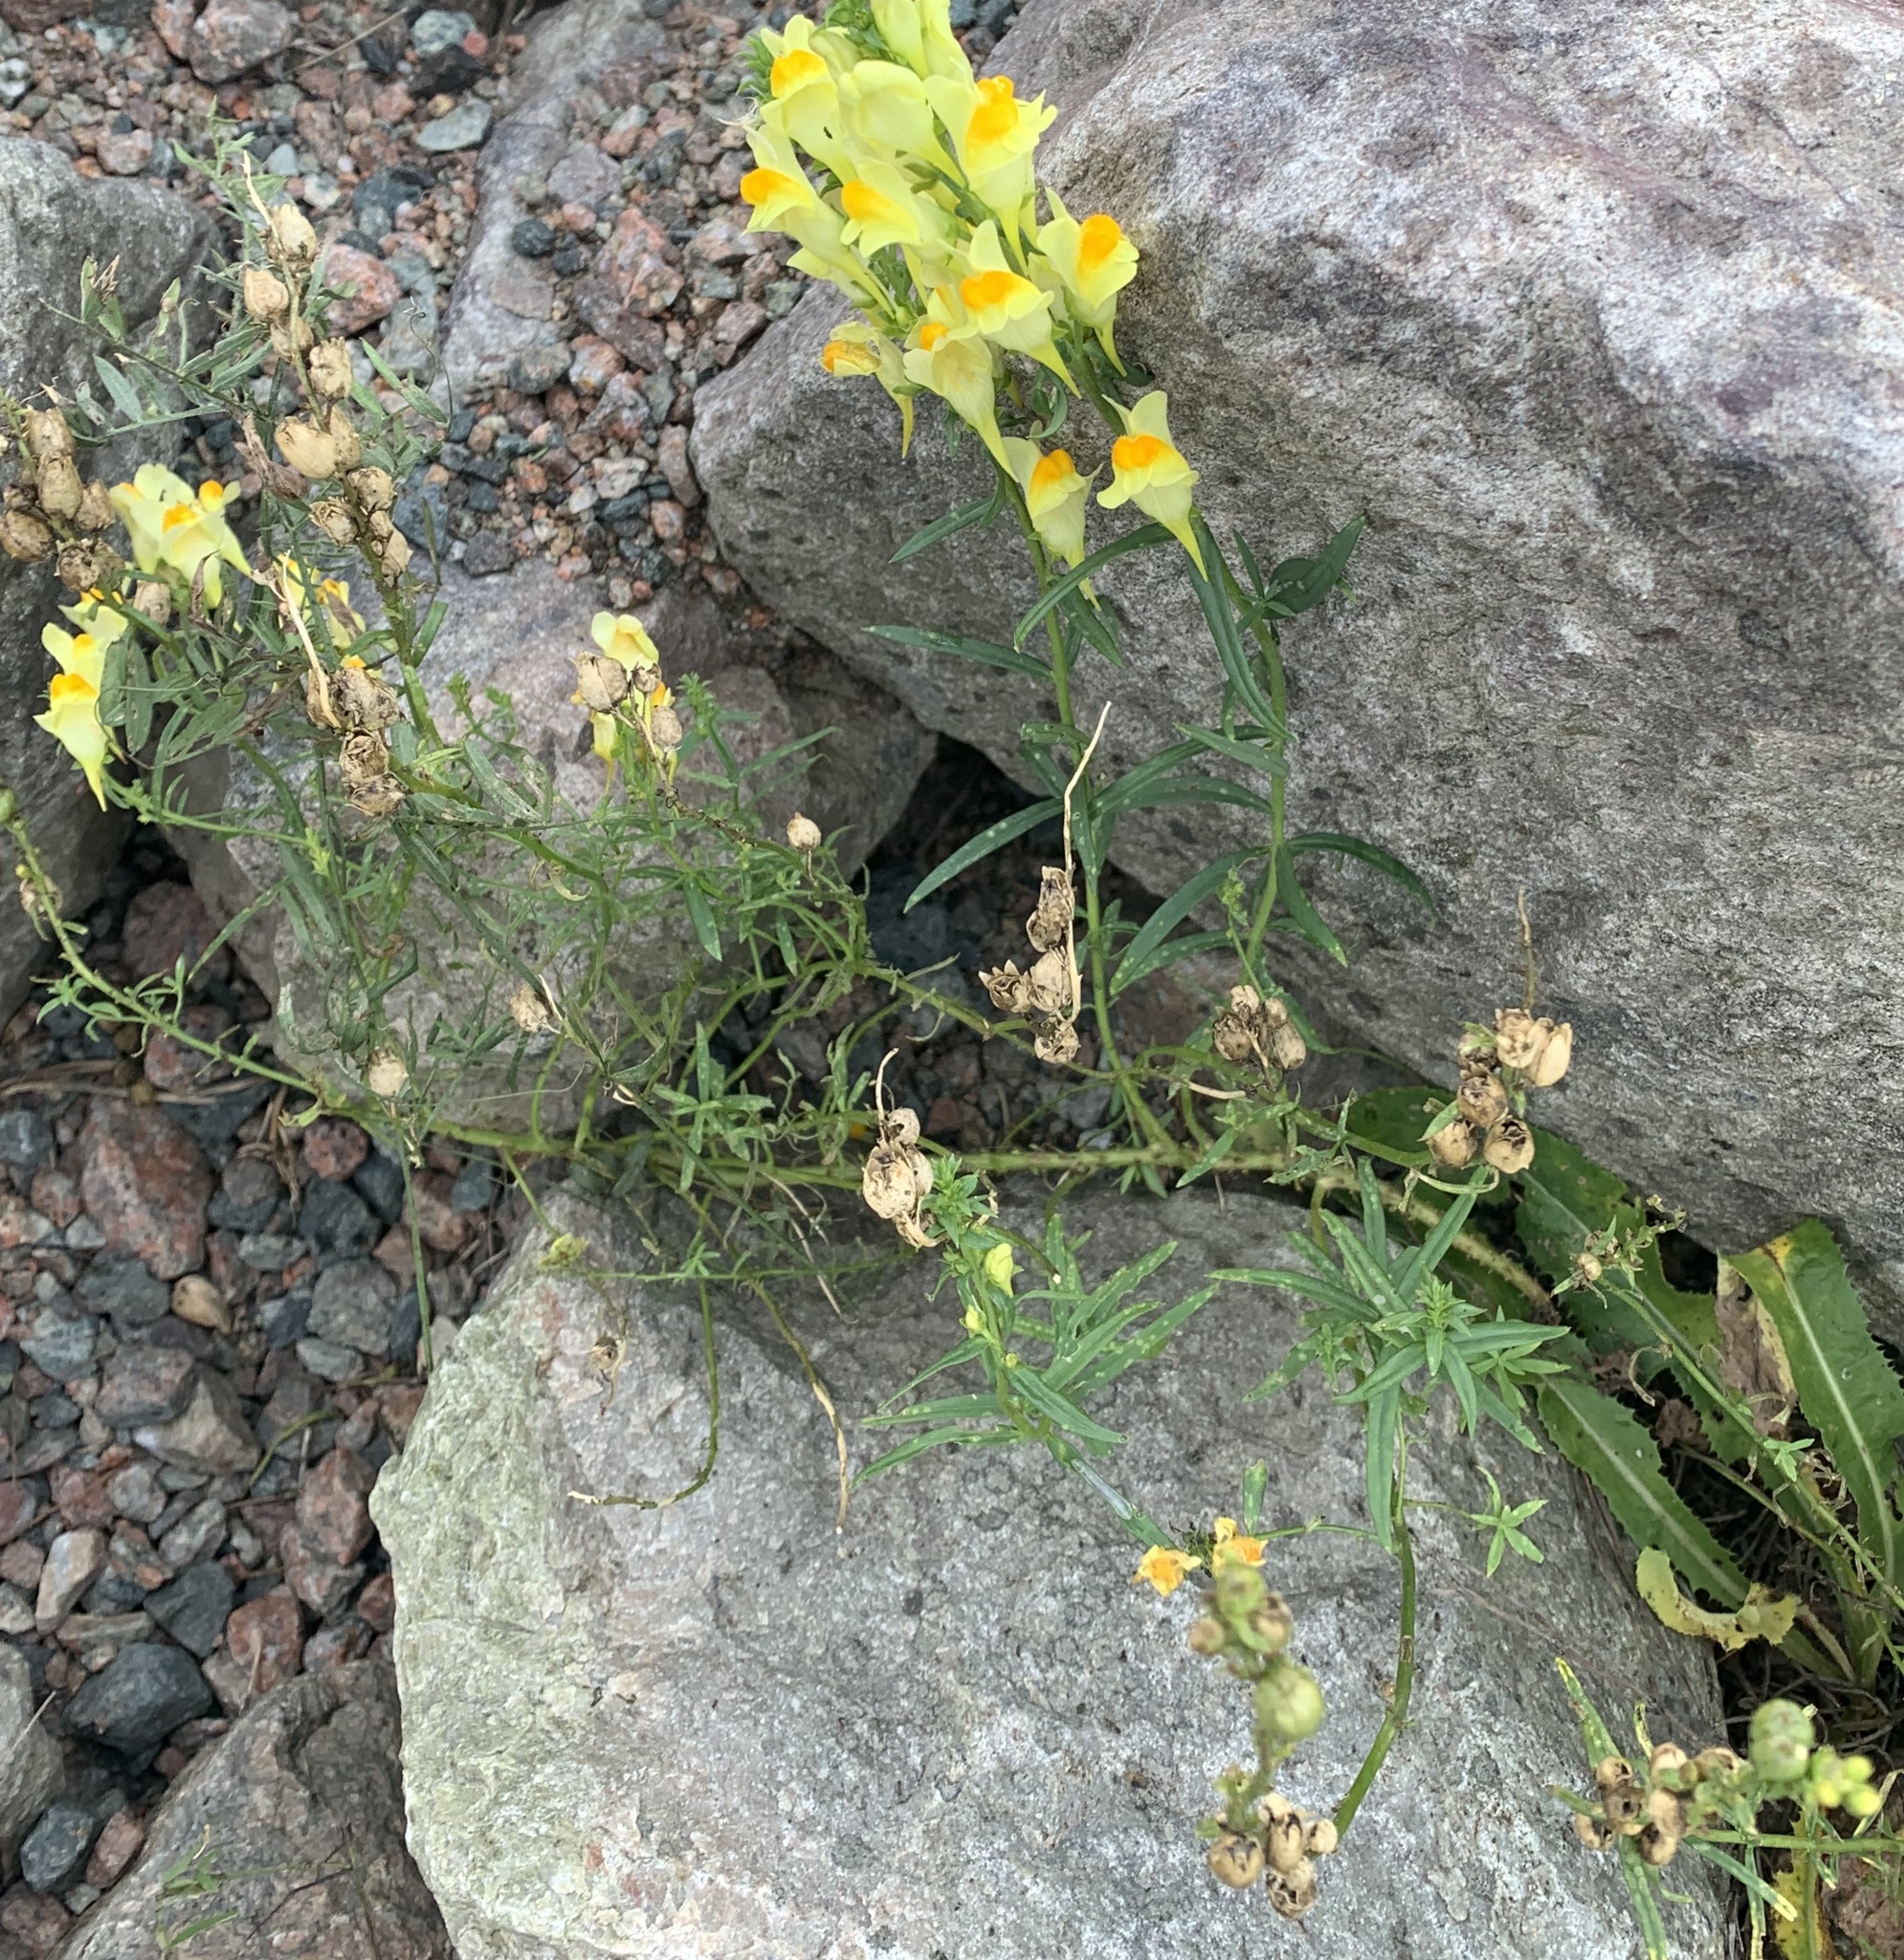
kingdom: Plantae
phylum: Tracheophyta
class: Magnoliopsida
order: Lamiales
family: Plantaginaceae
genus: Linaria
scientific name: Linaria vulgaris
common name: Butter and eggs
